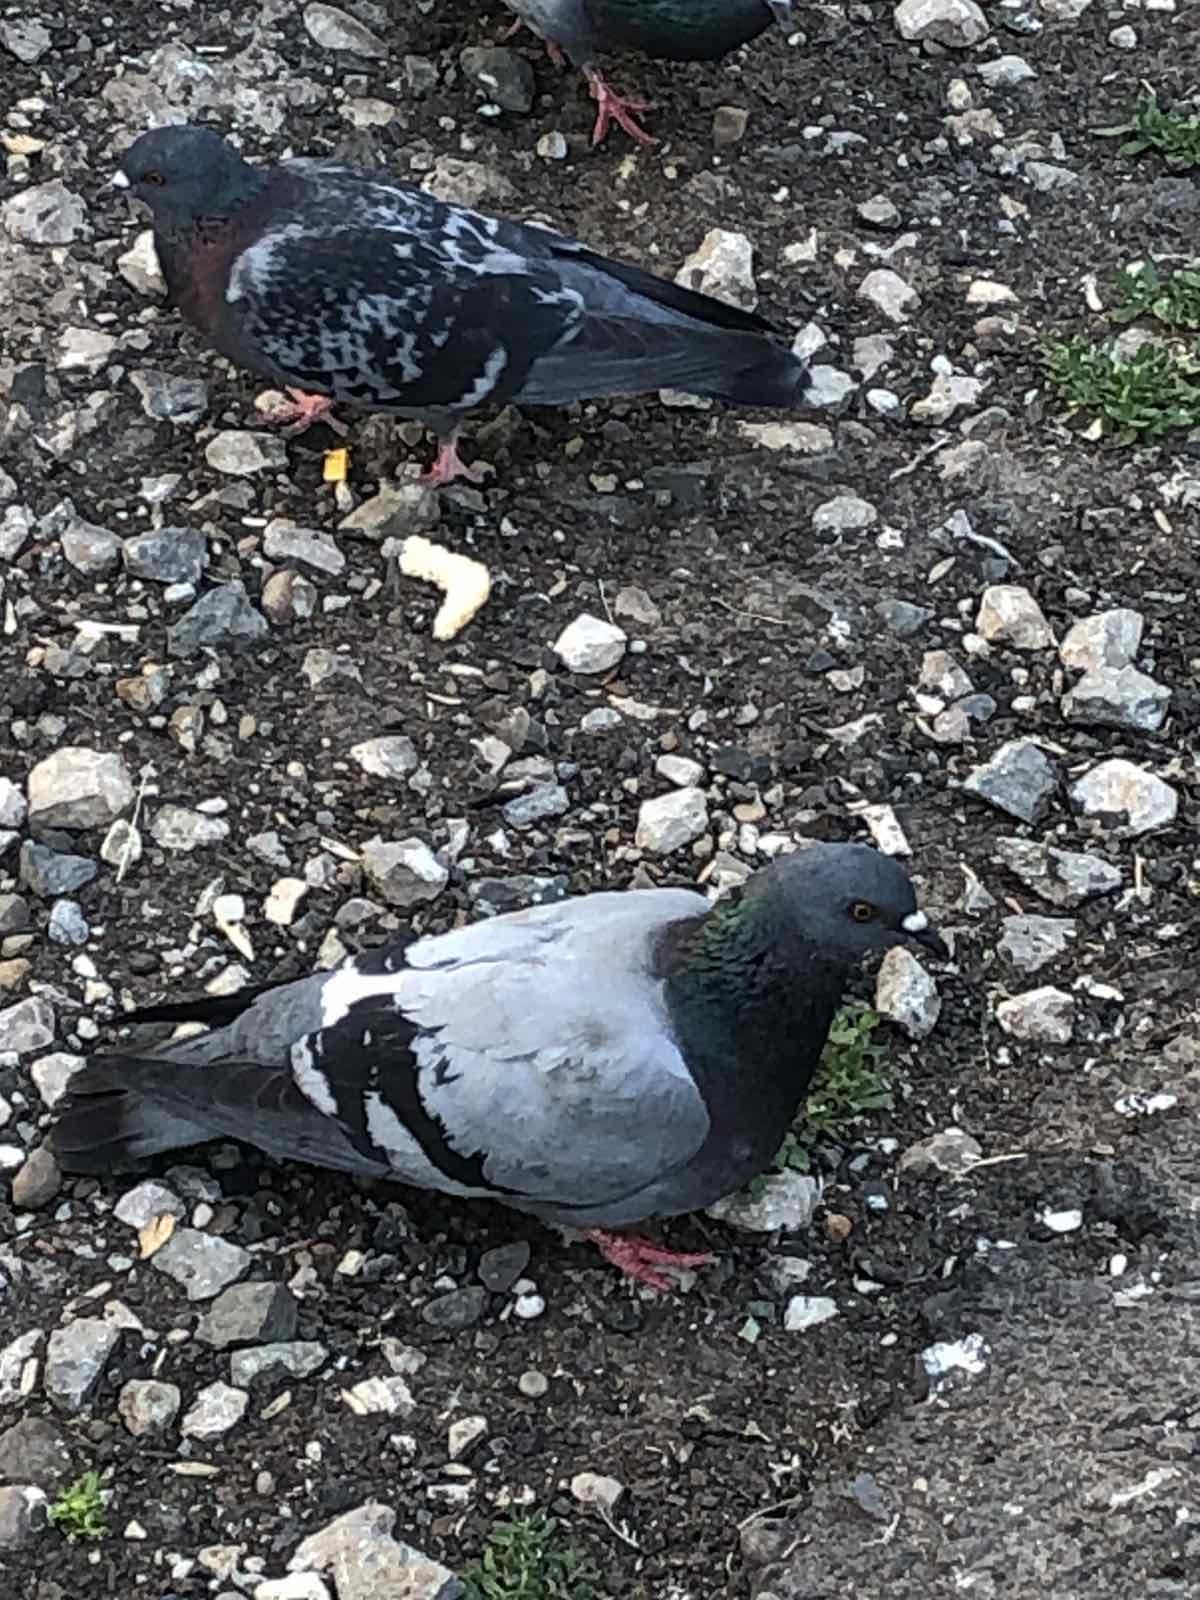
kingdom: Animalia
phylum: Chordata
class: Aves
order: Columbiformes
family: Columbidae
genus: Columba
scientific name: Columba livia
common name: Rock pigeon
